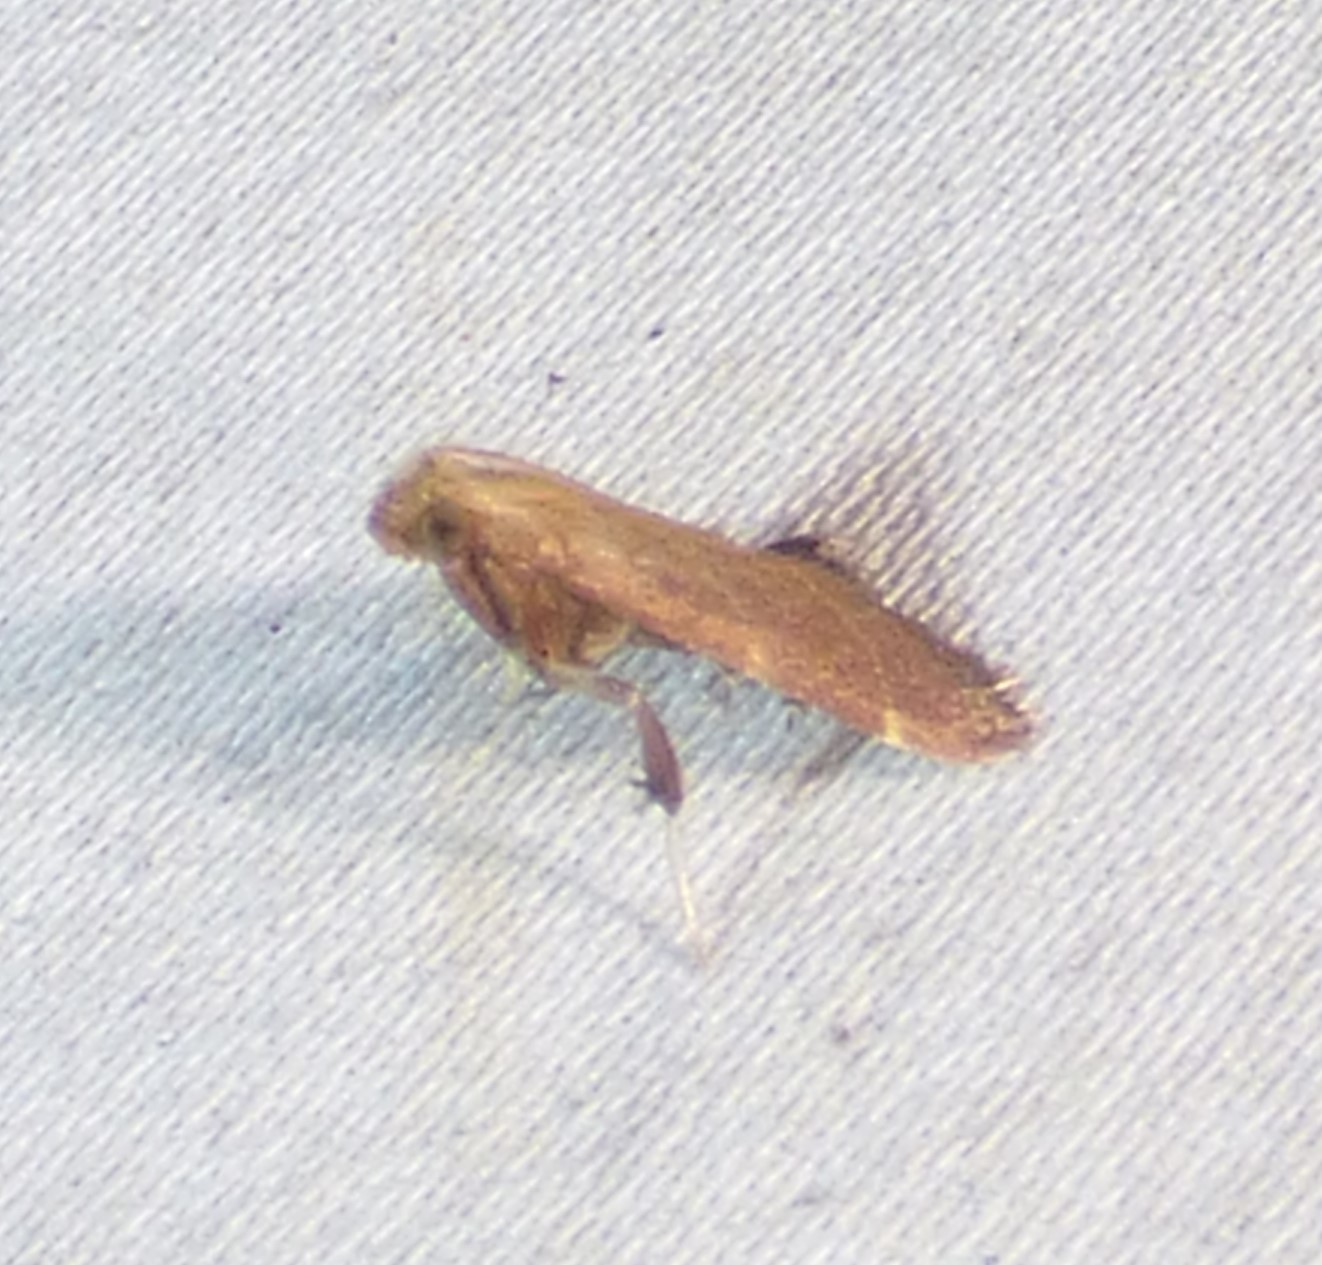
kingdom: Animalia
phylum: Arthropoda
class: Insecta
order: Lepidoptera
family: Pyralidae
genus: Arta
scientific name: Arta statalis
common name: Posturing arta moth
